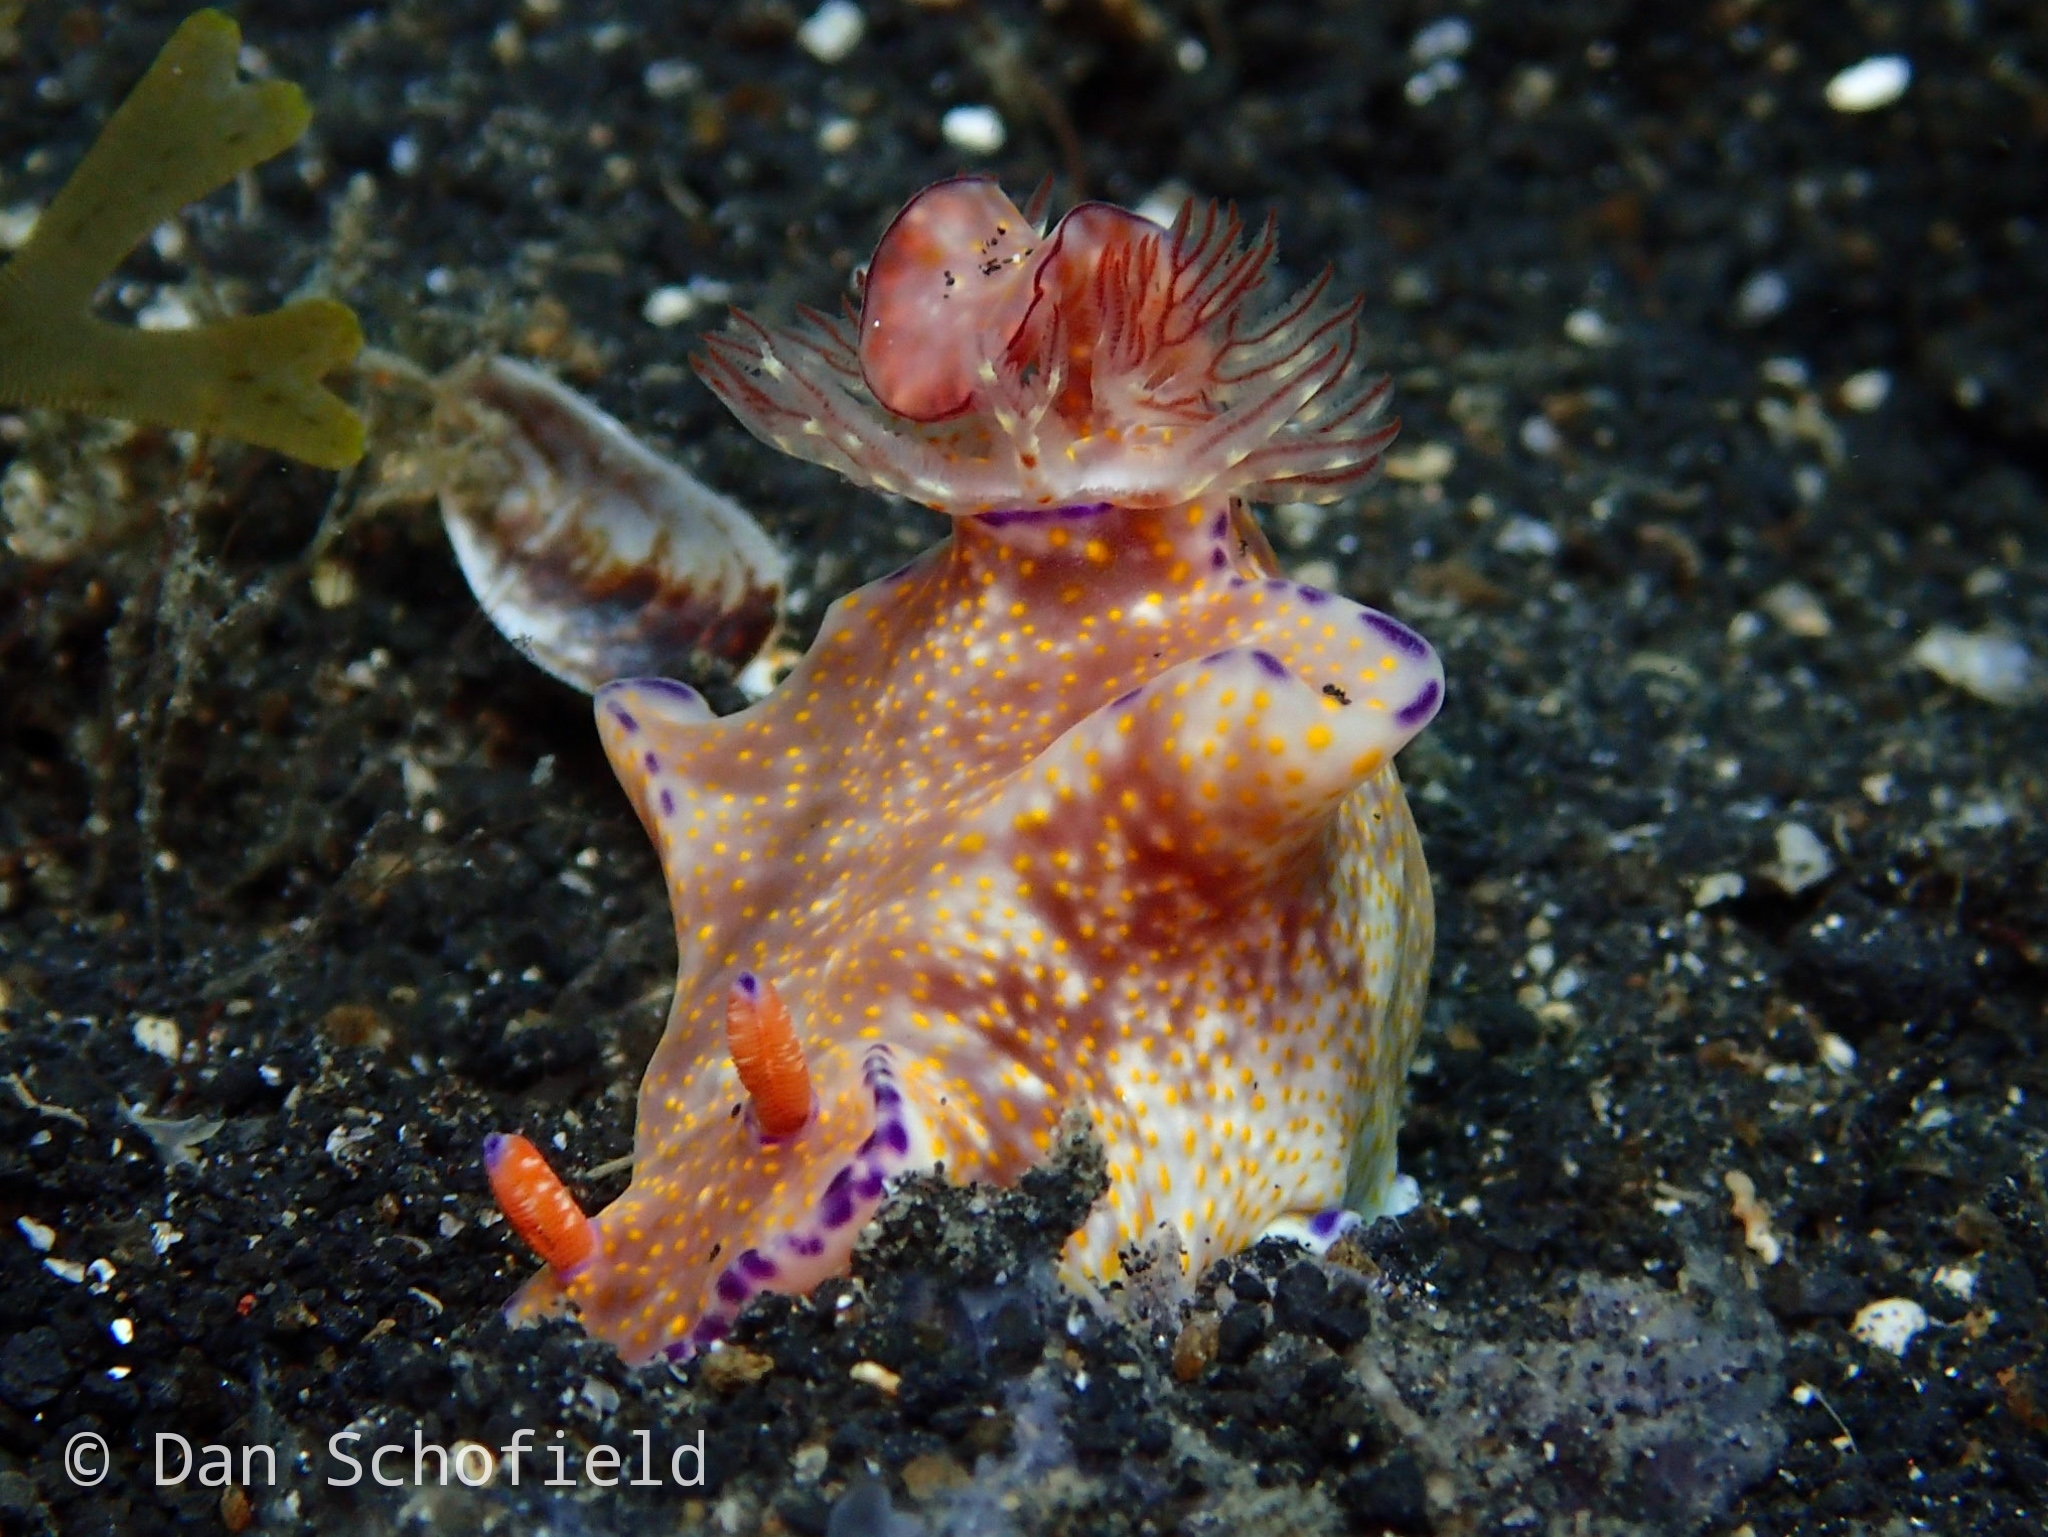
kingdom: Animalia
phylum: Mollusca
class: Gastropoda
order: Nudibranchia
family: Chromodorididae
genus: Ceratosoma
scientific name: Ceratosoma gracillimum
